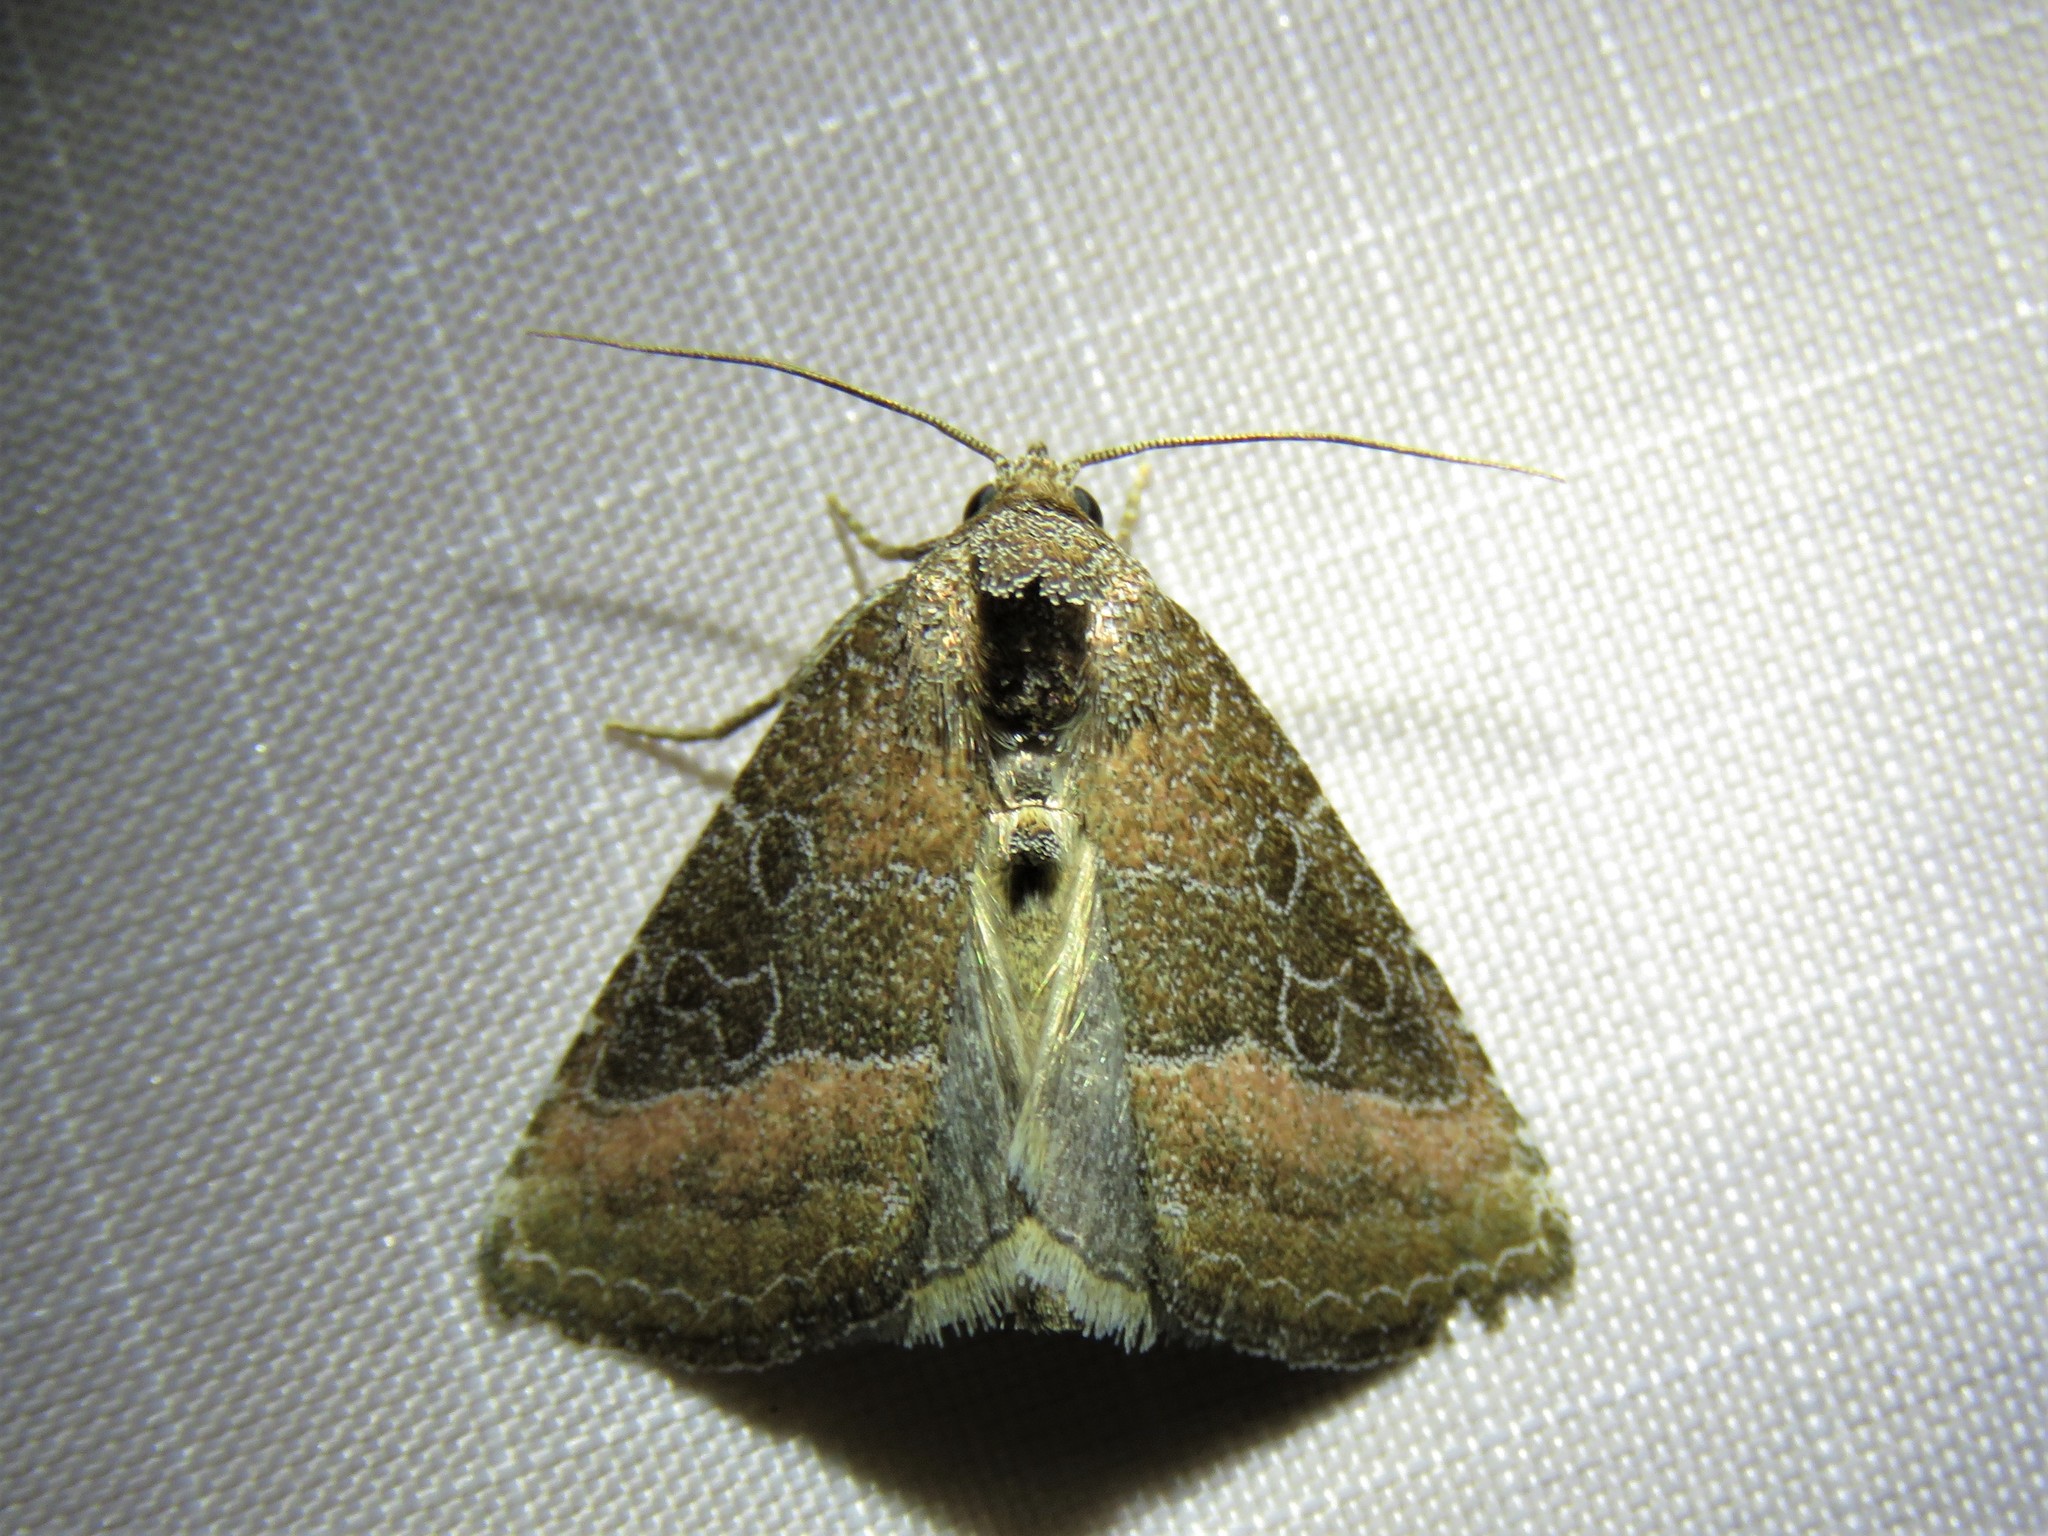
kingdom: Animalia
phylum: Arthropoda
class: Insecta
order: Lepidoptera
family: Noctuidae
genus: Ogdoconta
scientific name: Ogdoconta cinereola
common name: Common pinkband
